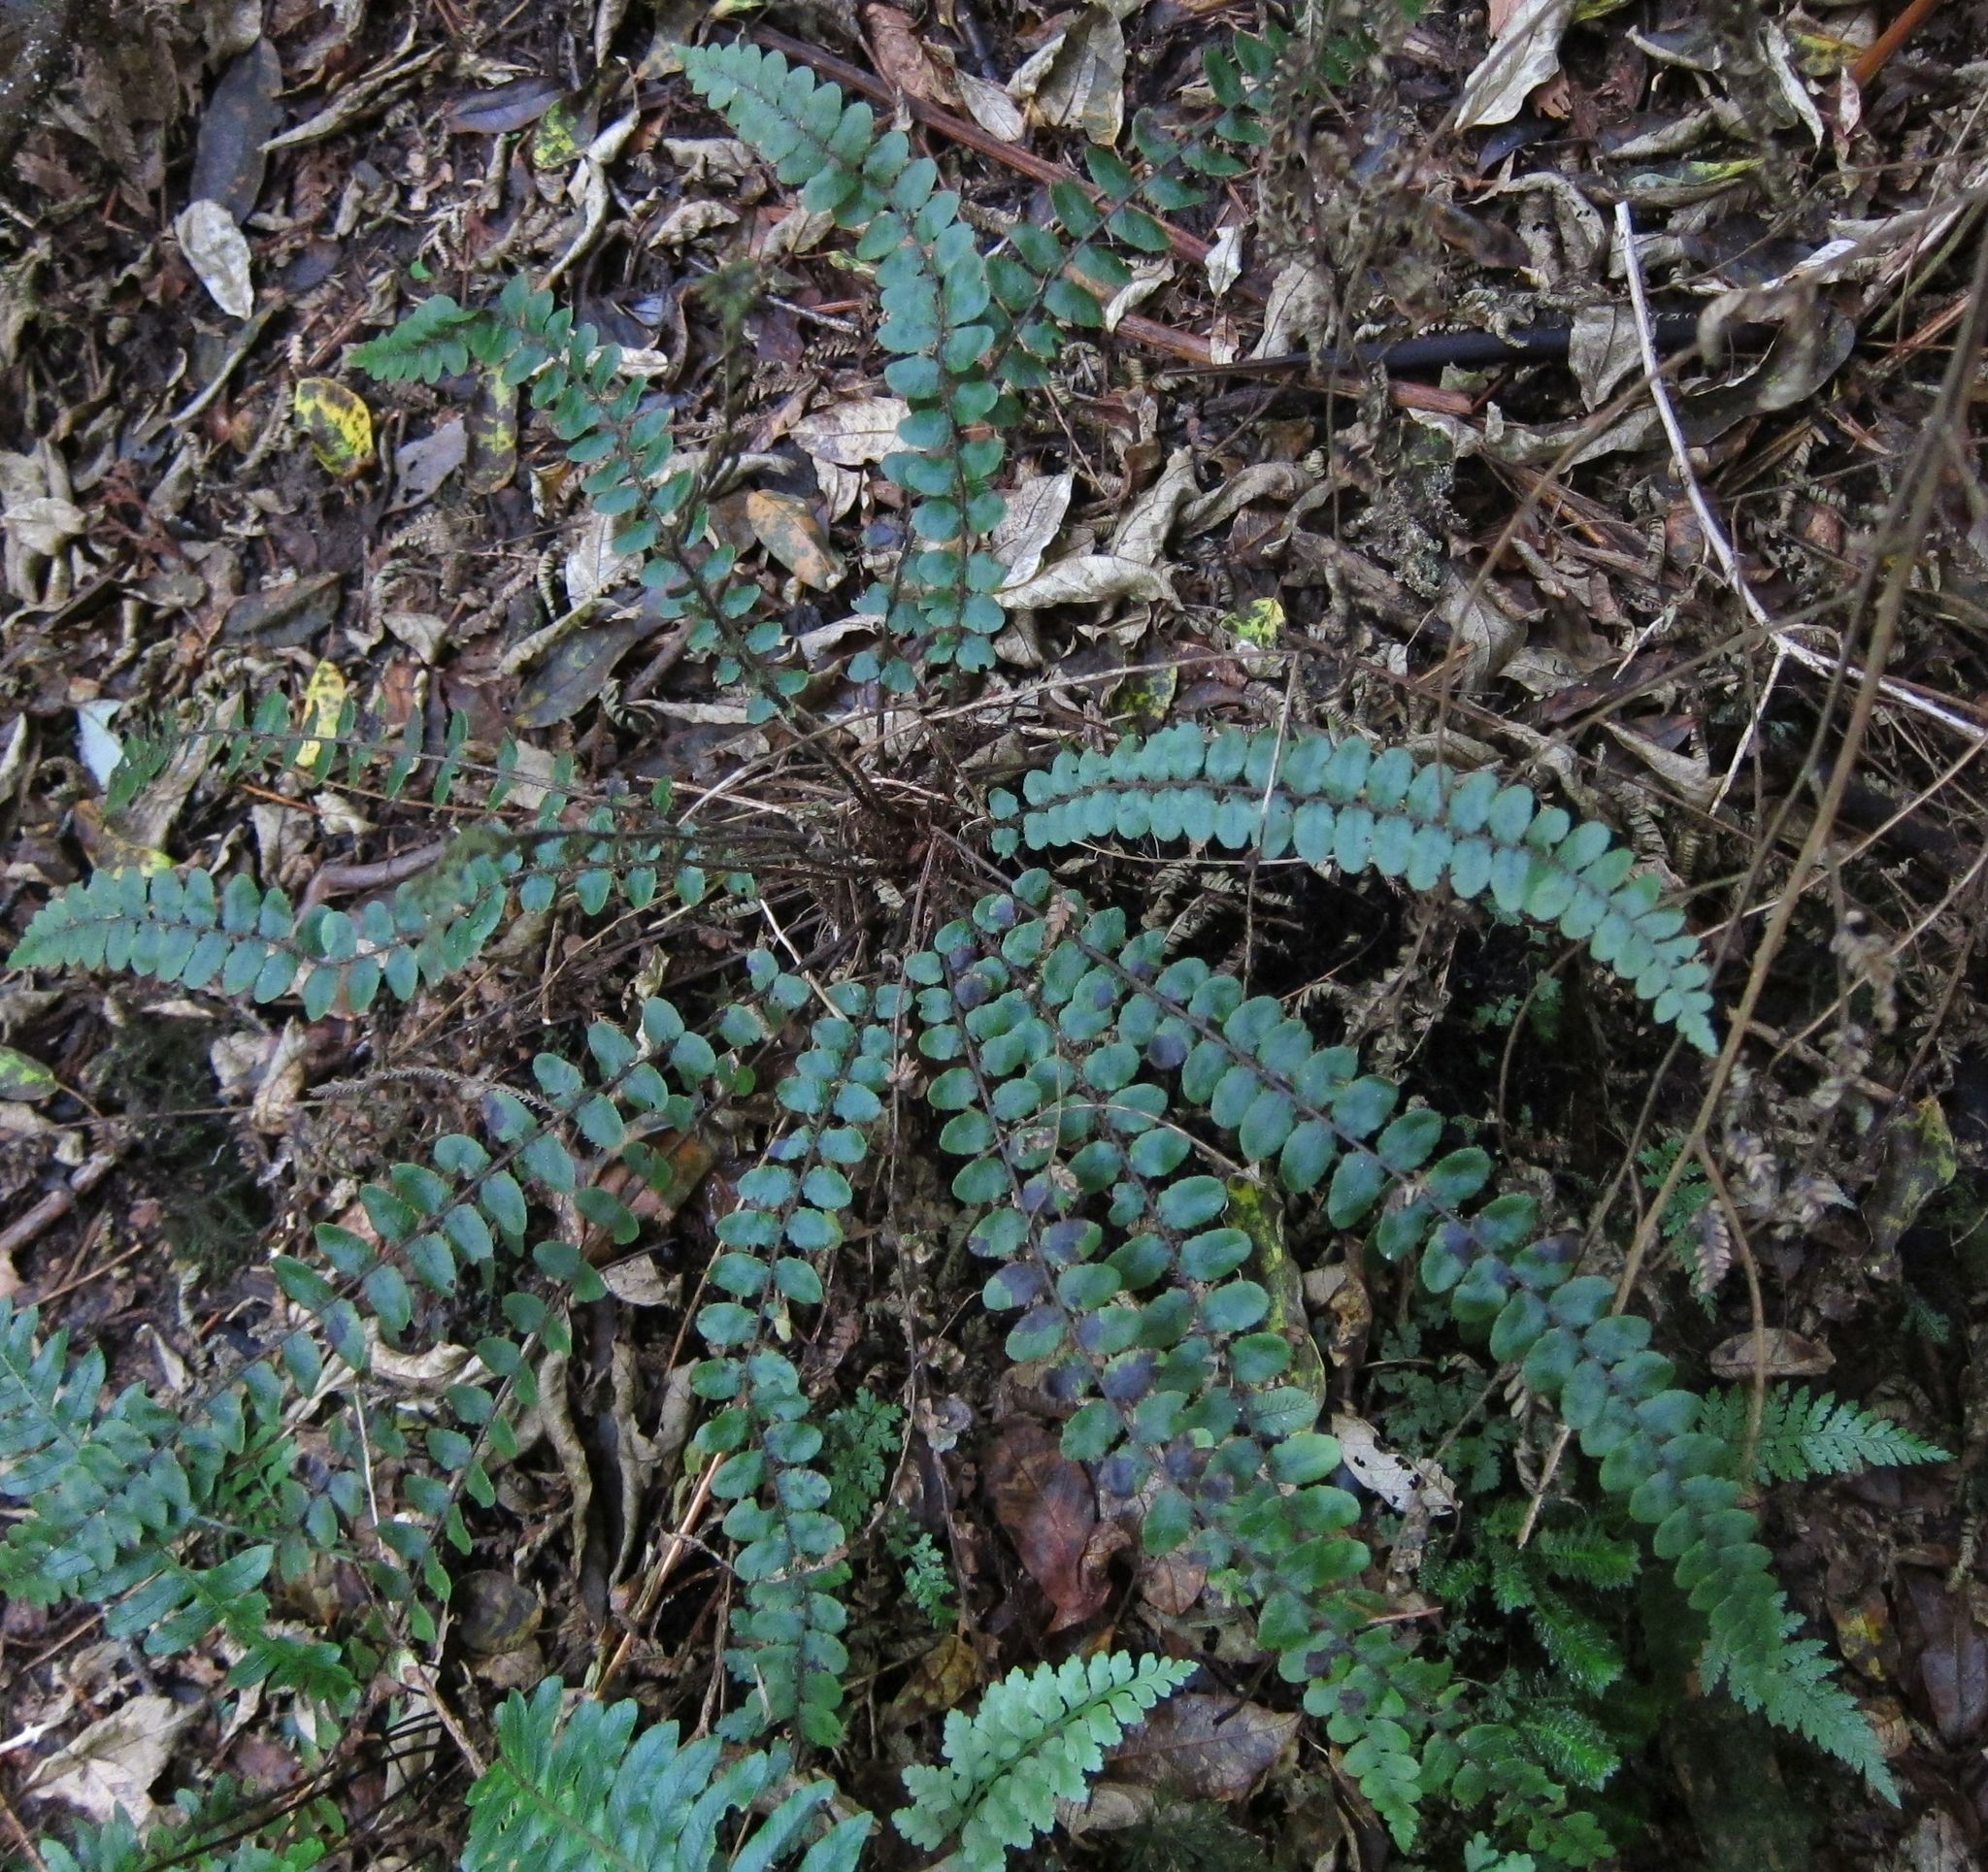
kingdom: Plantae
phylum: Tracheophyta
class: Polypodiopsida
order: Polypodiales
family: Blechnaceae
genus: Cranfillia
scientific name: Cranfillia fluviatilis
